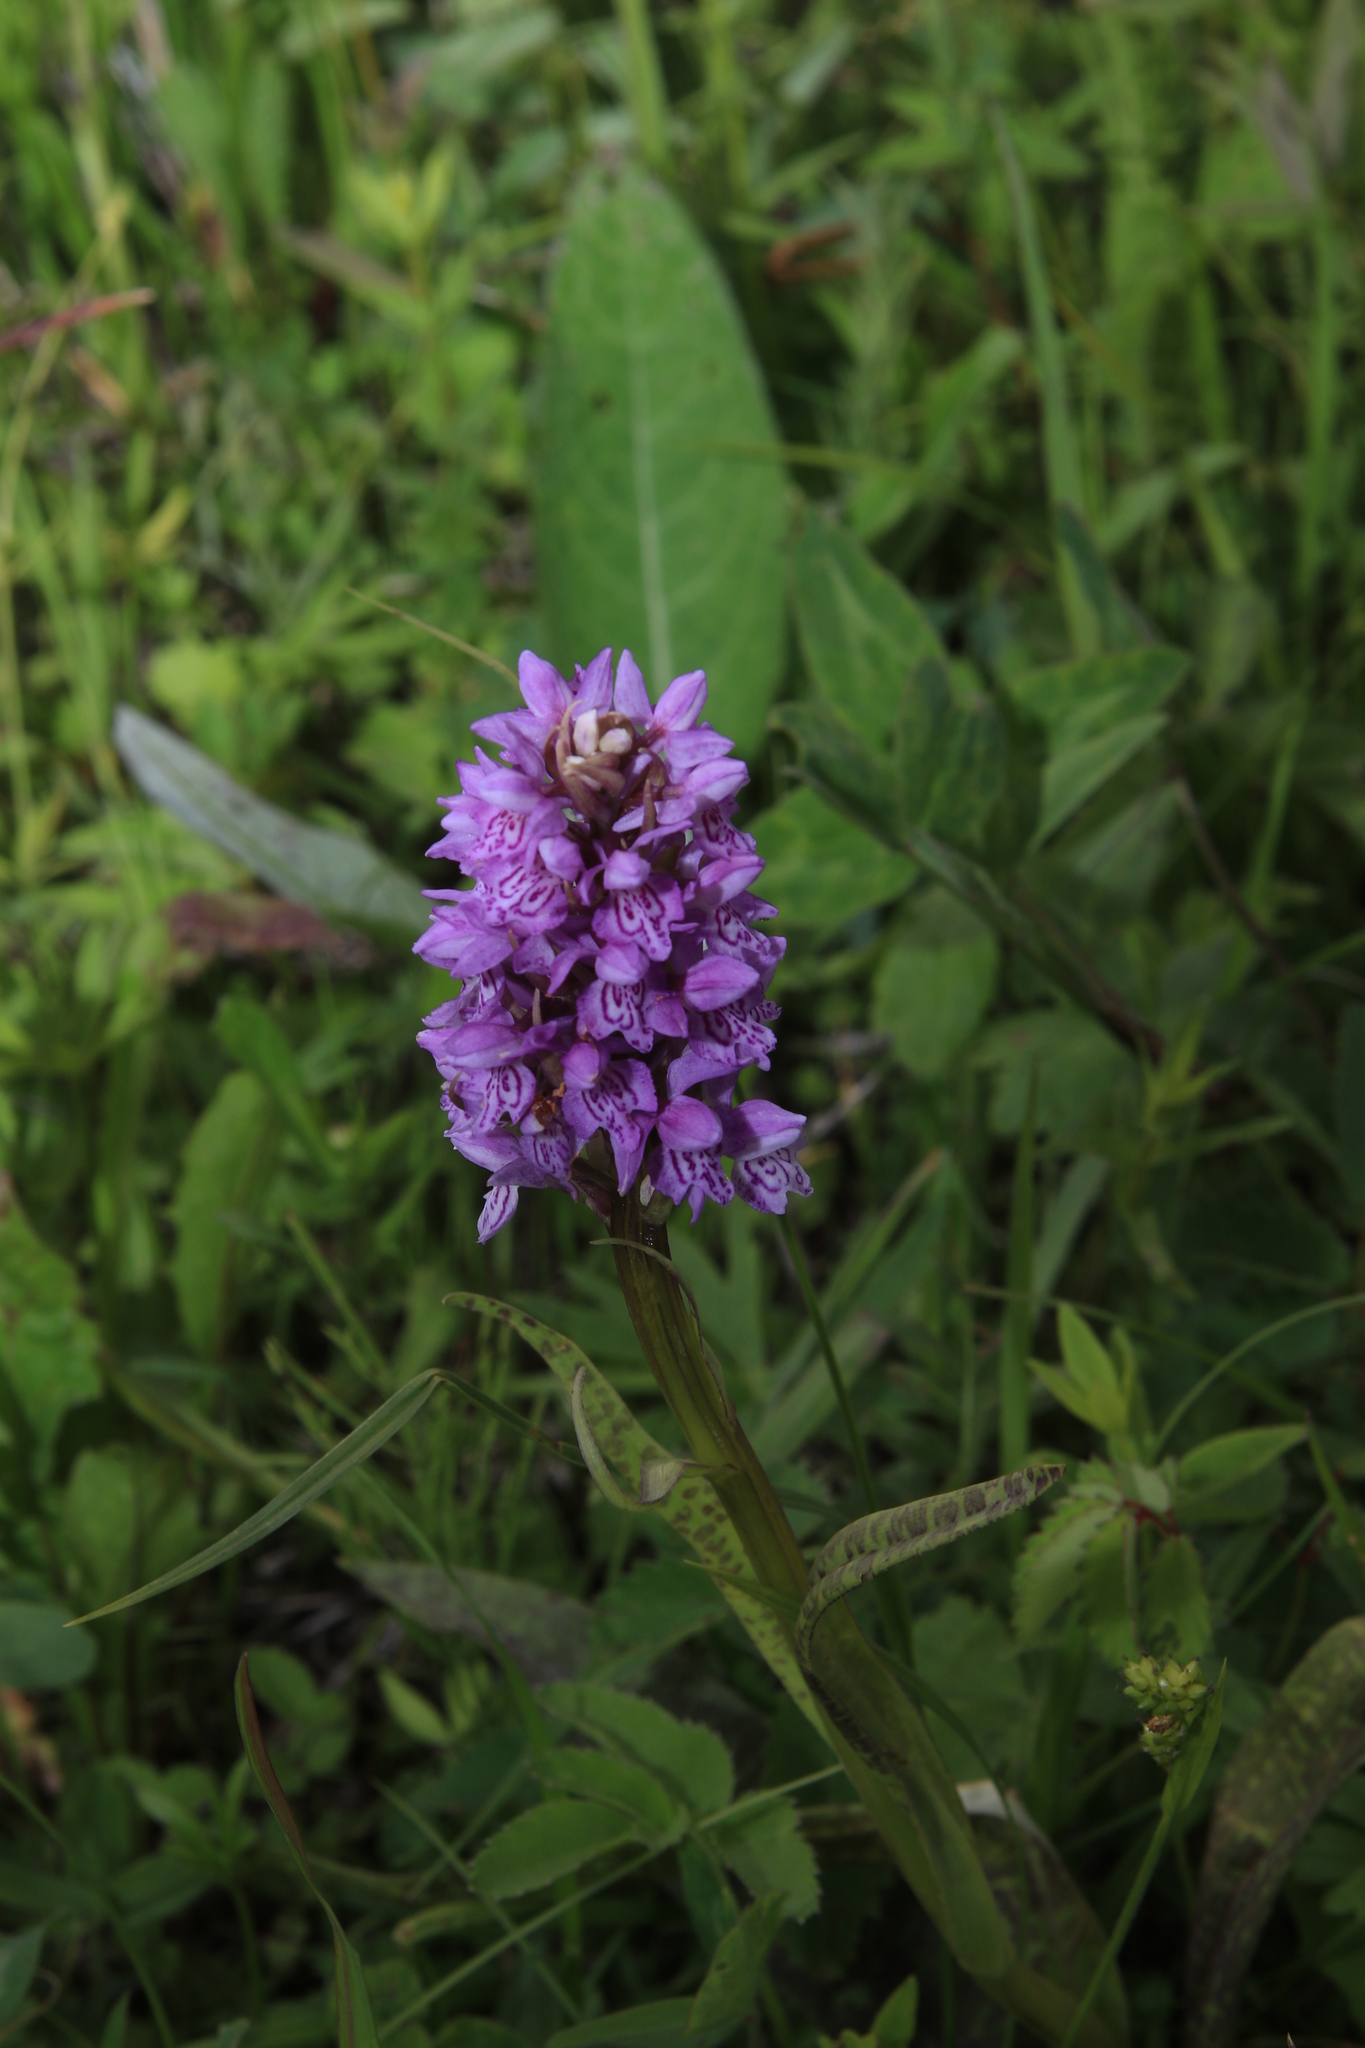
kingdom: Plantae
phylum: Tracheophyta
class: Liliopsida
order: Asparagales
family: Orchidaceae
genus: Dactylorhiza
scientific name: Dactylorhiza maculata
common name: Heath spotted-orchid
